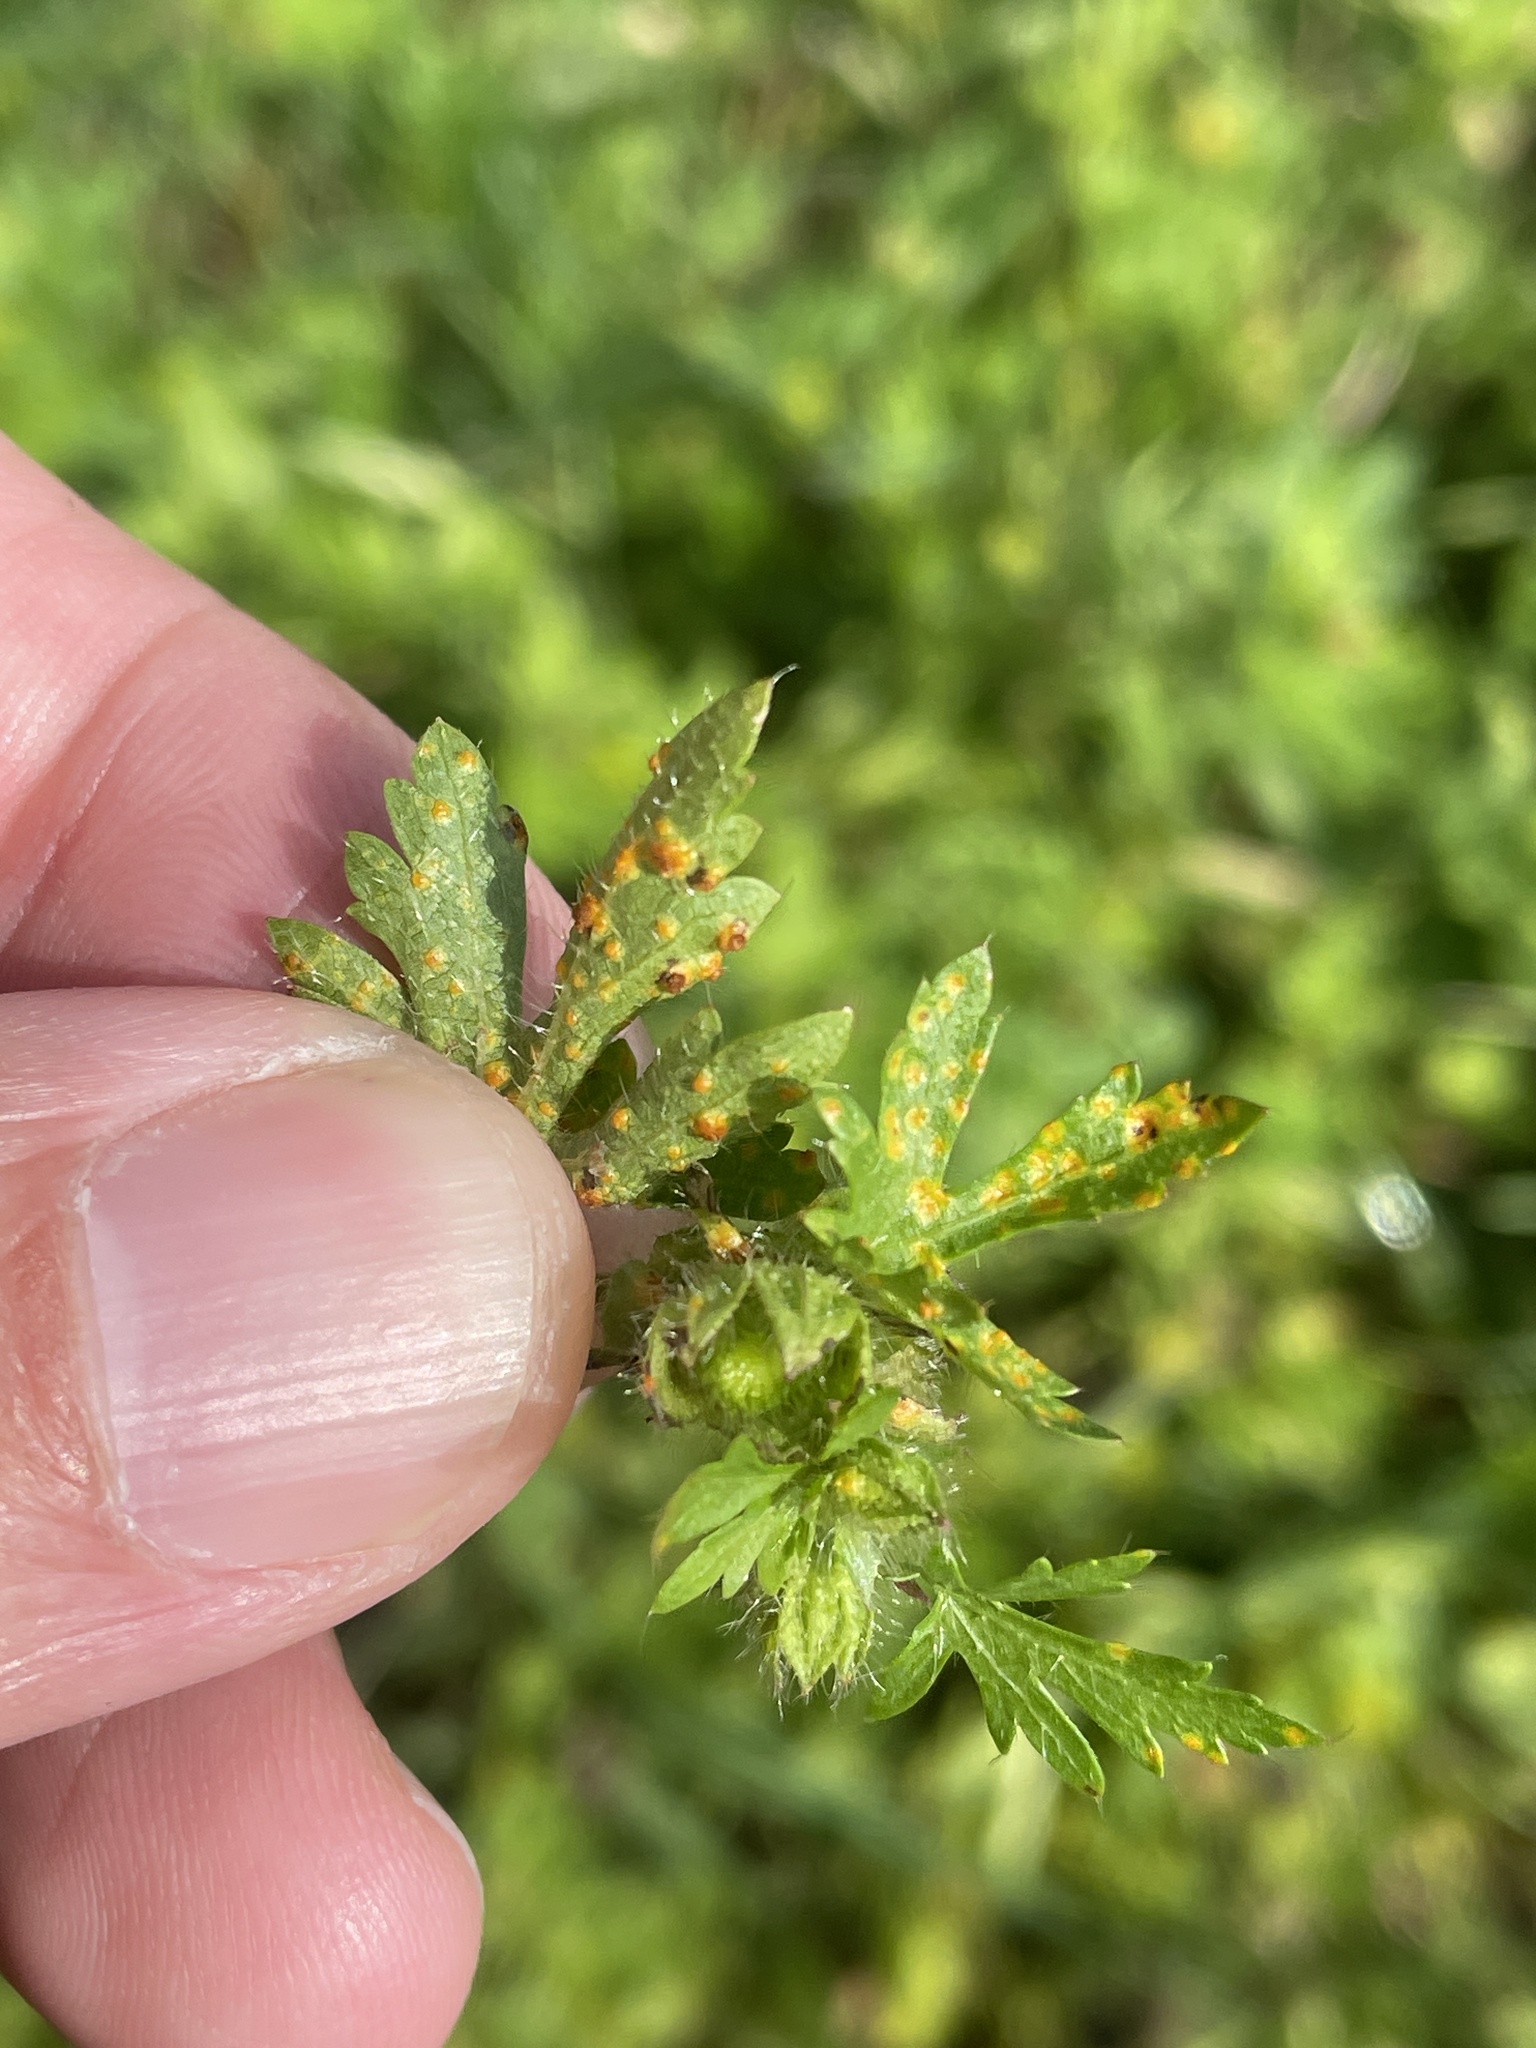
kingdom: Fungi
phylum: Basidiomycota
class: Pucciniomycetes
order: Pucciniales
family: Pucciniaceae
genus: Puccinia
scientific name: Puccinia modiolae
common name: Rust of bristlemallow
